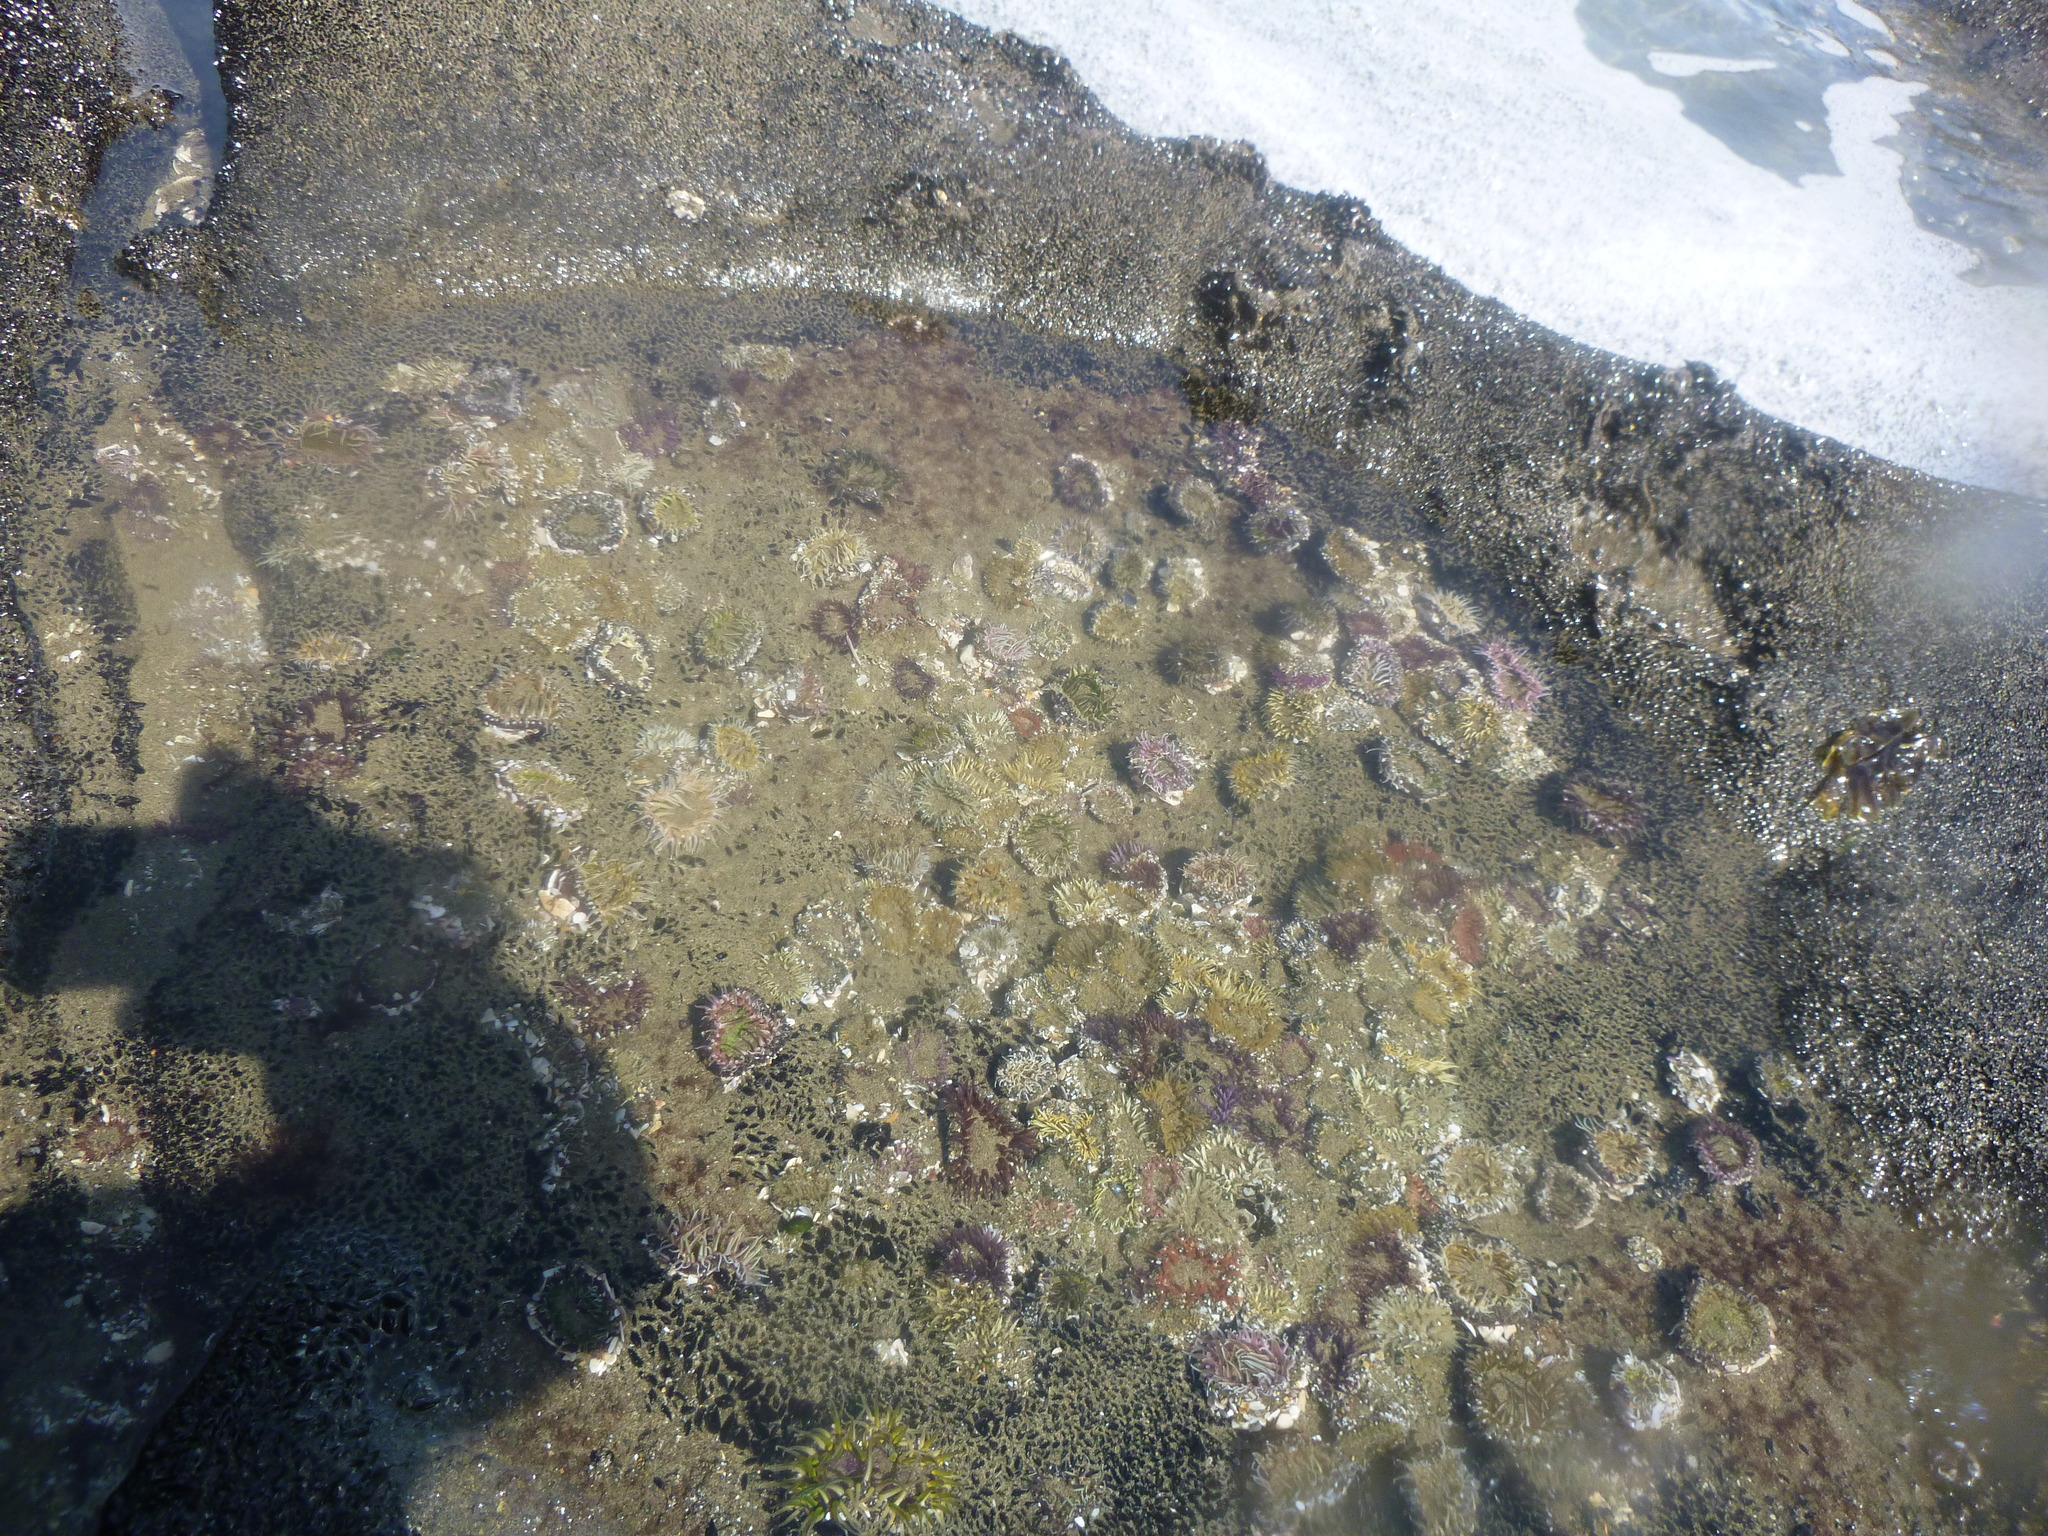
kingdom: Animalia
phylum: Cnidaria
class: Anthozoa
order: Actiniaria
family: Actiniidae
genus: Oulactis
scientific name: Oulactis magna
